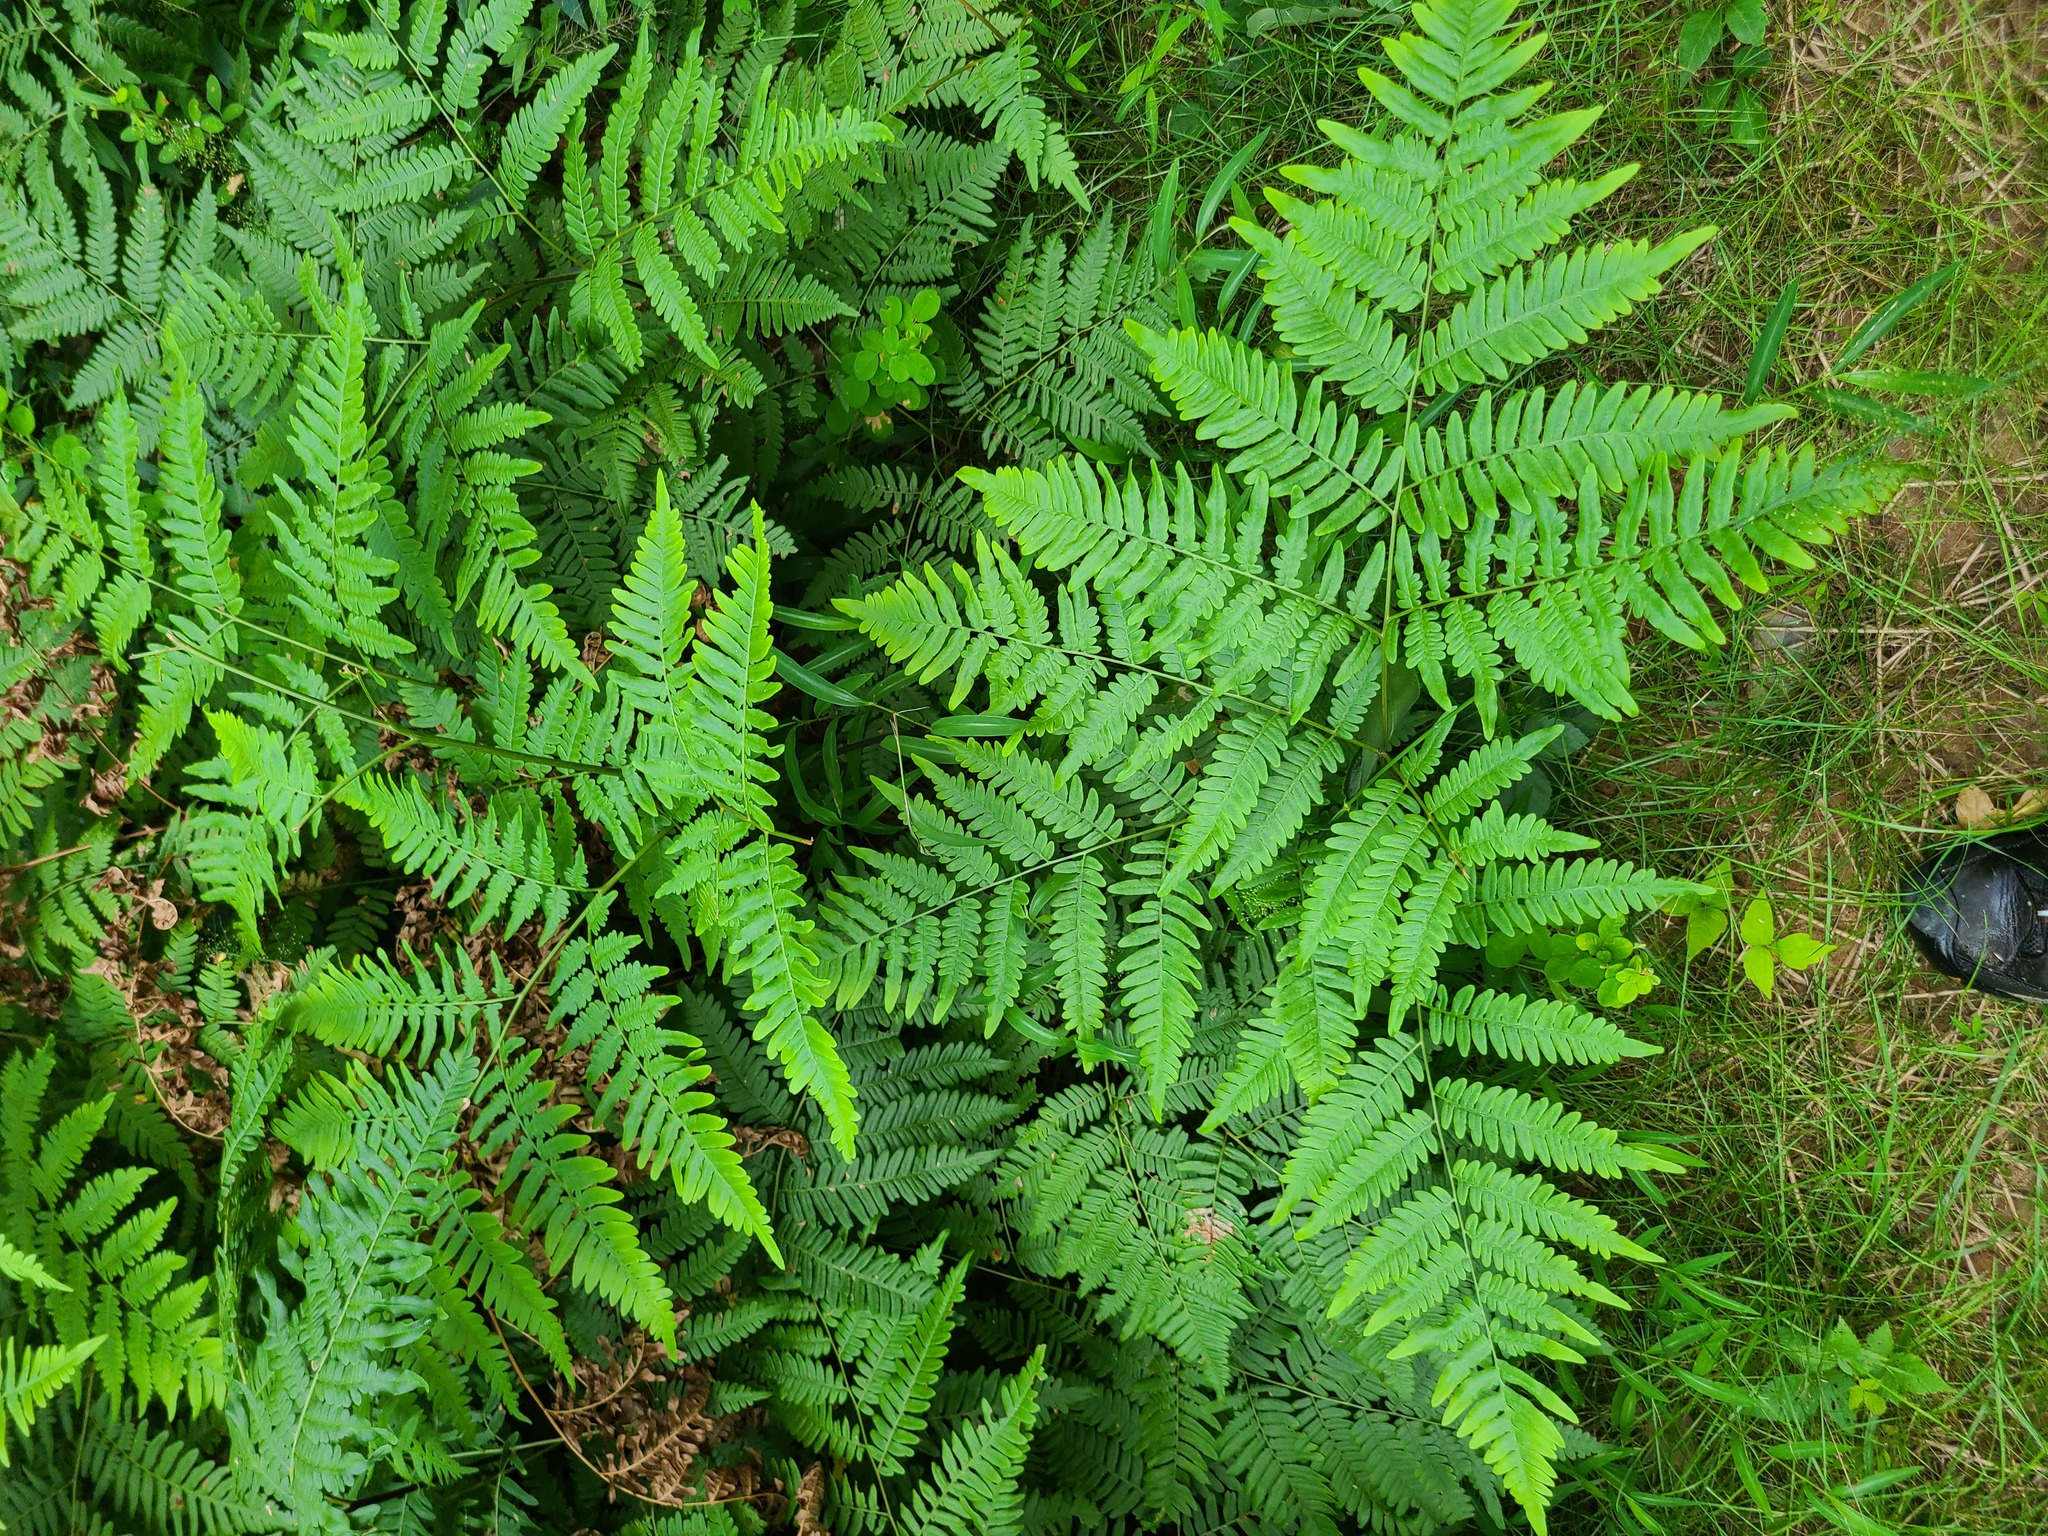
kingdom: Plantae
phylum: Tracheophyta
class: Polypodiopsida
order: Polypodiales
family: Dennstaedtiaceae
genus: Pteridium
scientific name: Pteridium aquilinum
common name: Bracken
